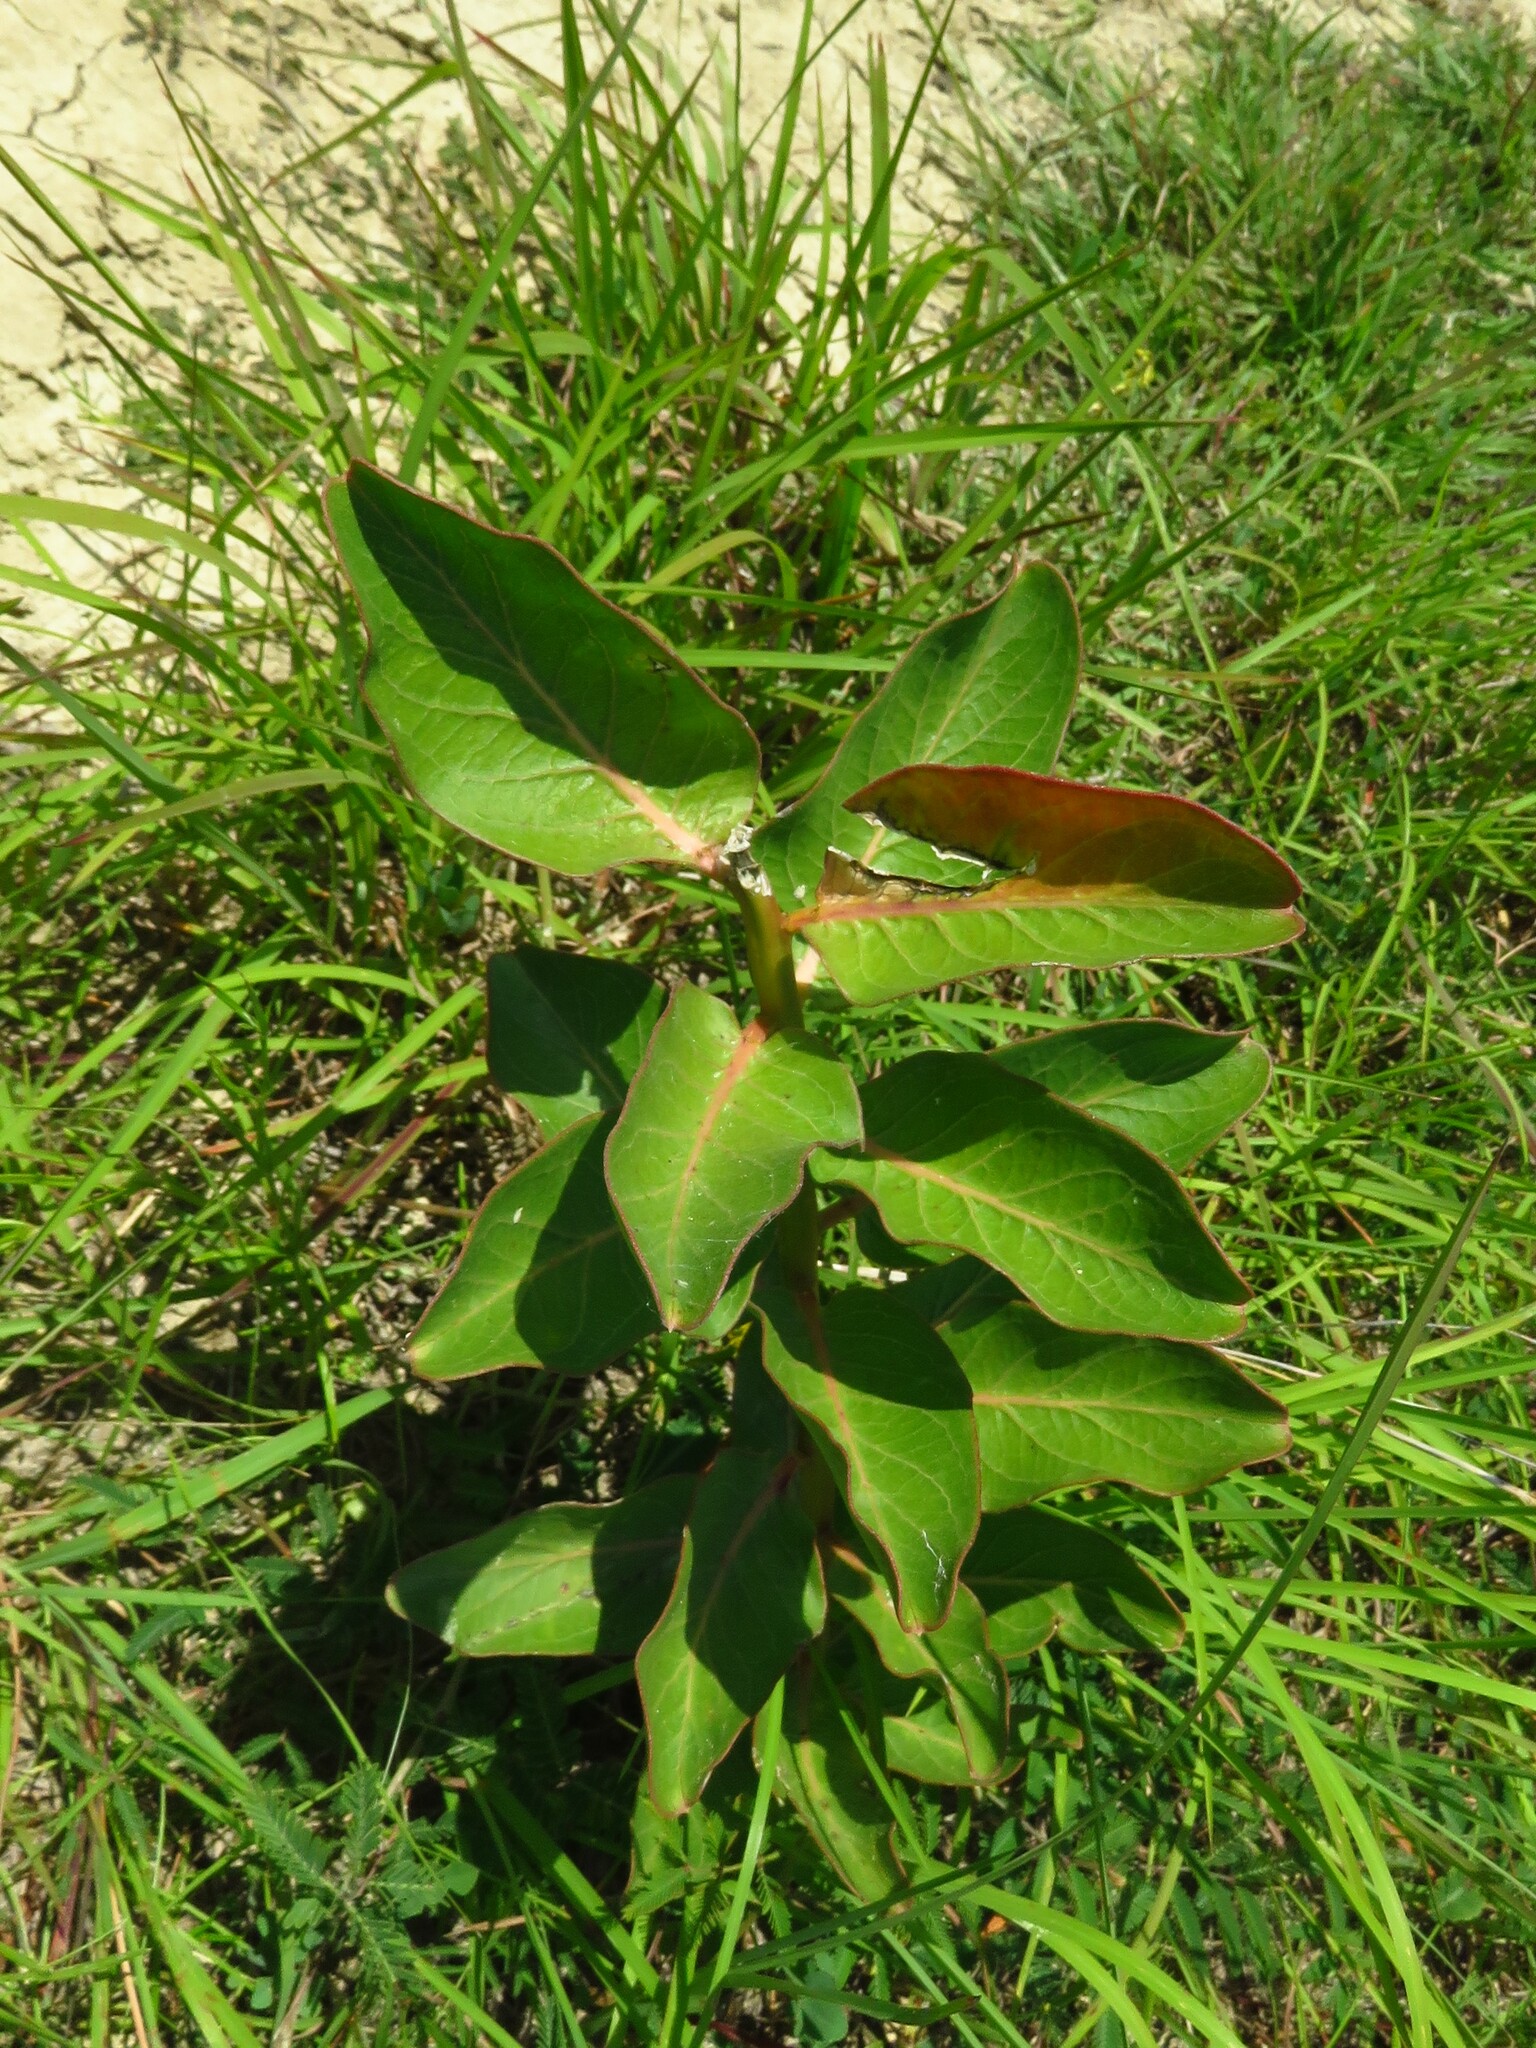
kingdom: Plantae
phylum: Tracheophyta
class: Magnoliopsida
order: Gentianales
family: Apocynaceae
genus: Asclepias
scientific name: Asclepias viridis
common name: Antelope-horns
